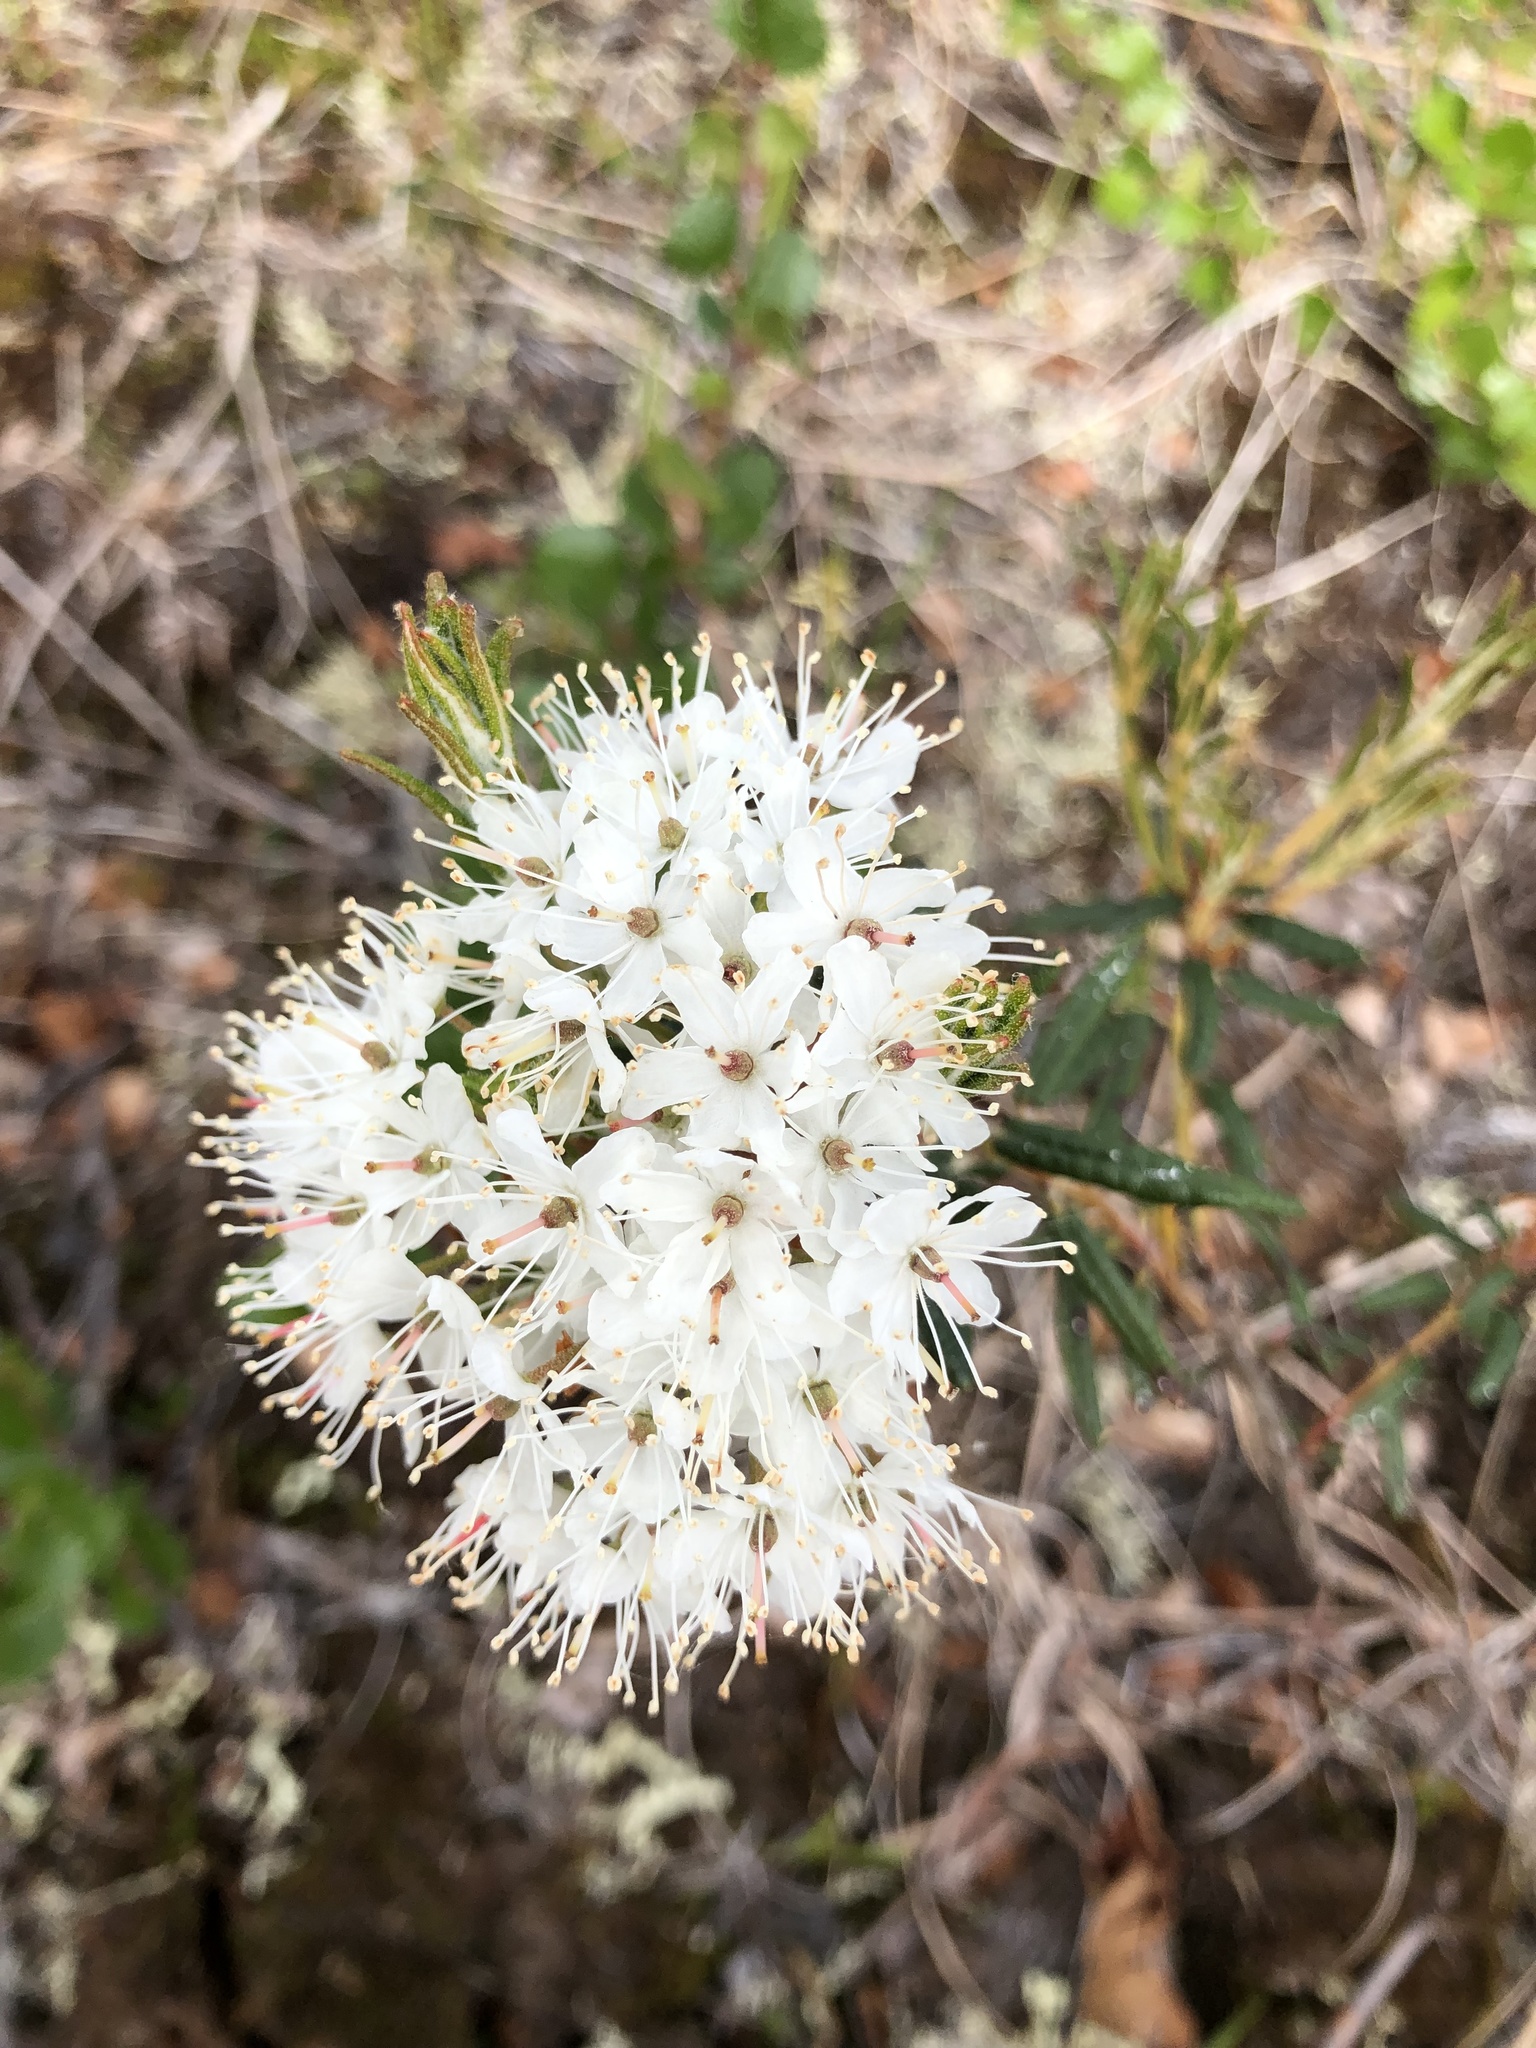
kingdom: Plantae
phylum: Tracheophyta
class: Magnoliopsida
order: Ericales
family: Ericaceae
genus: Rhododendron
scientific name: Rhododendron tomentosum
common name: Marsh labrador tea
